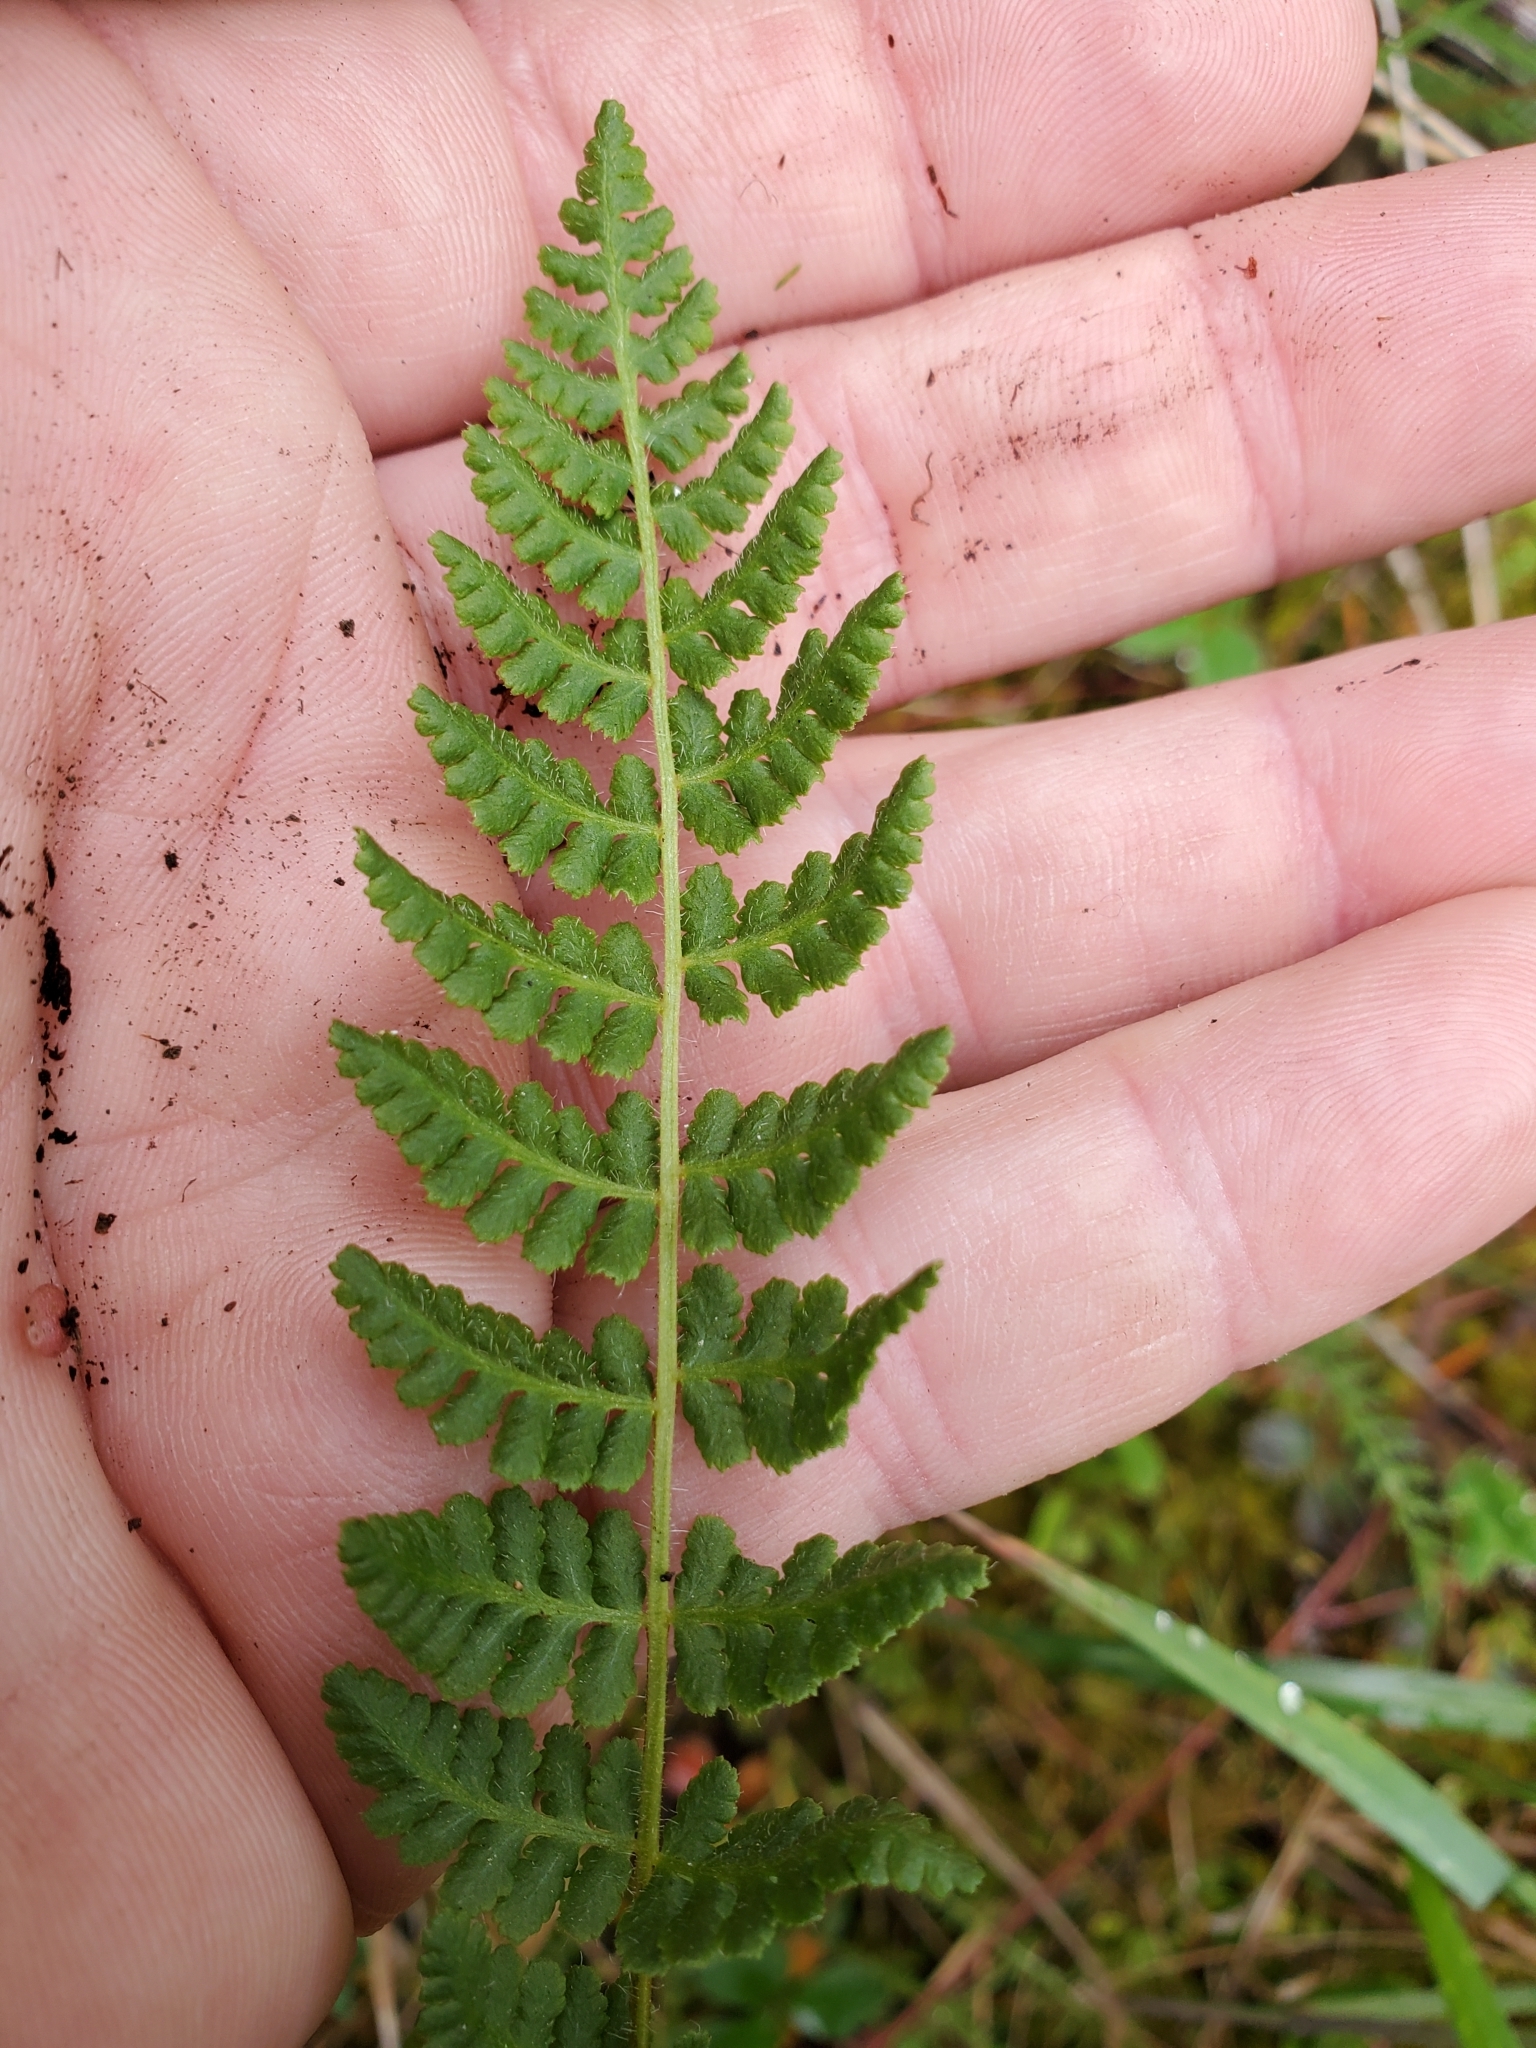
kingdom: Plantae
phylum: Tracheophyta
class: Polypodiopsida
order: Polypodiales
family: Woodsiaceae
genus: Physematium
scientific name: Physematium scopulinum
